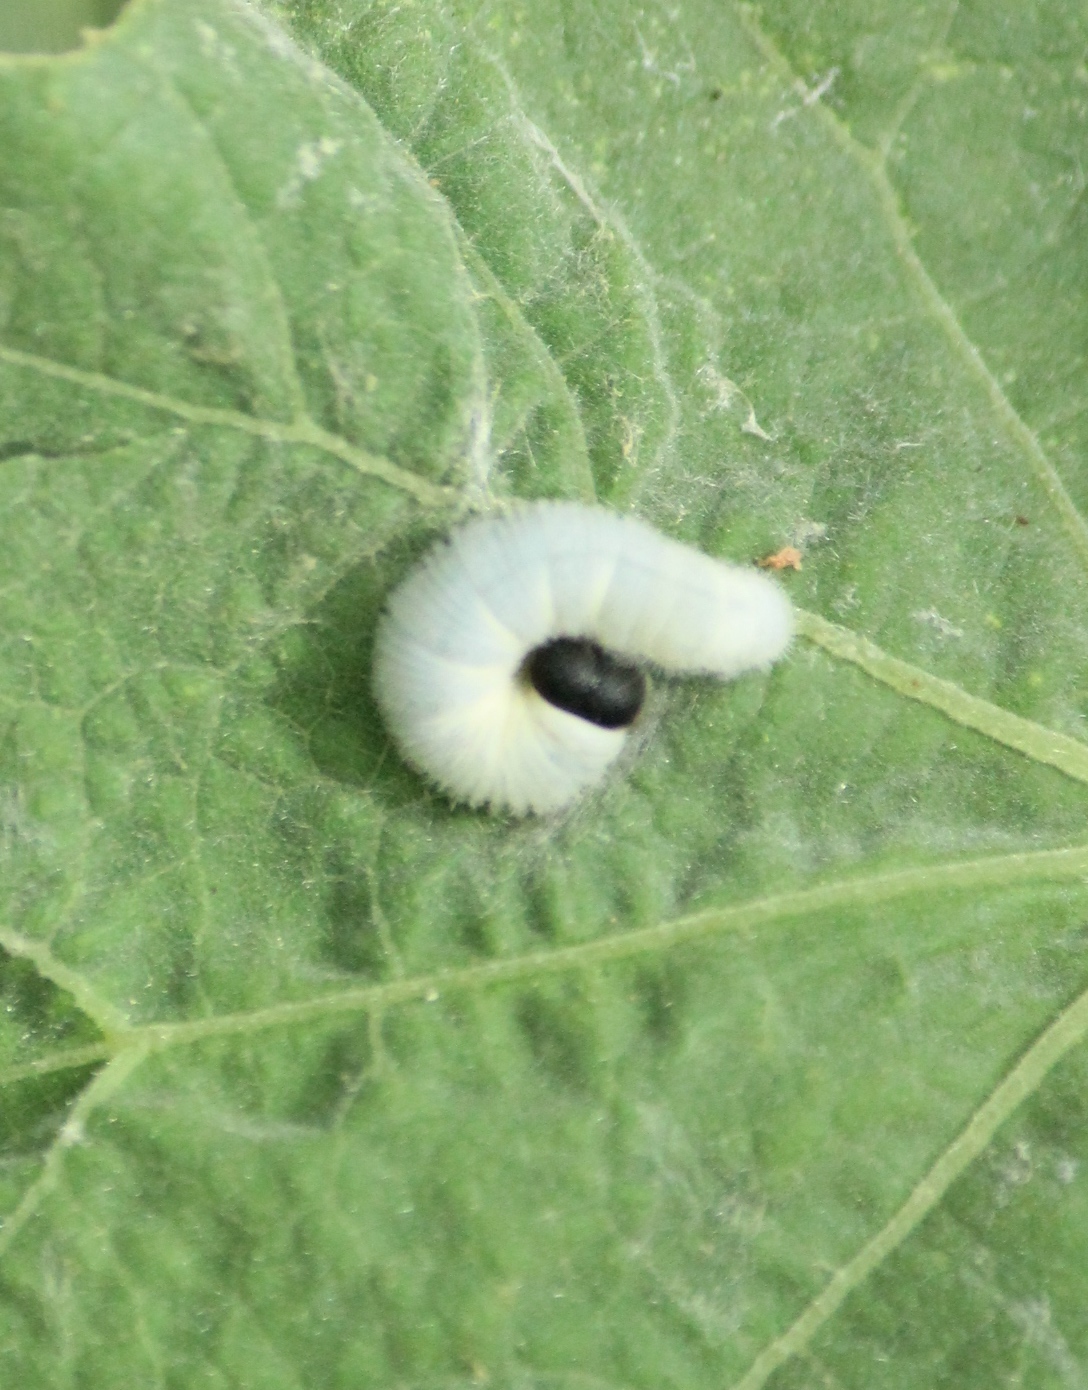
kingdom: Animalia
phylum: Arthropoda
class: Insecta
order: Lepidoptera
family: Hesperiidae
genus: Gomalia
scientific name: Gomalia elma
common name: Green-marbled skipper
